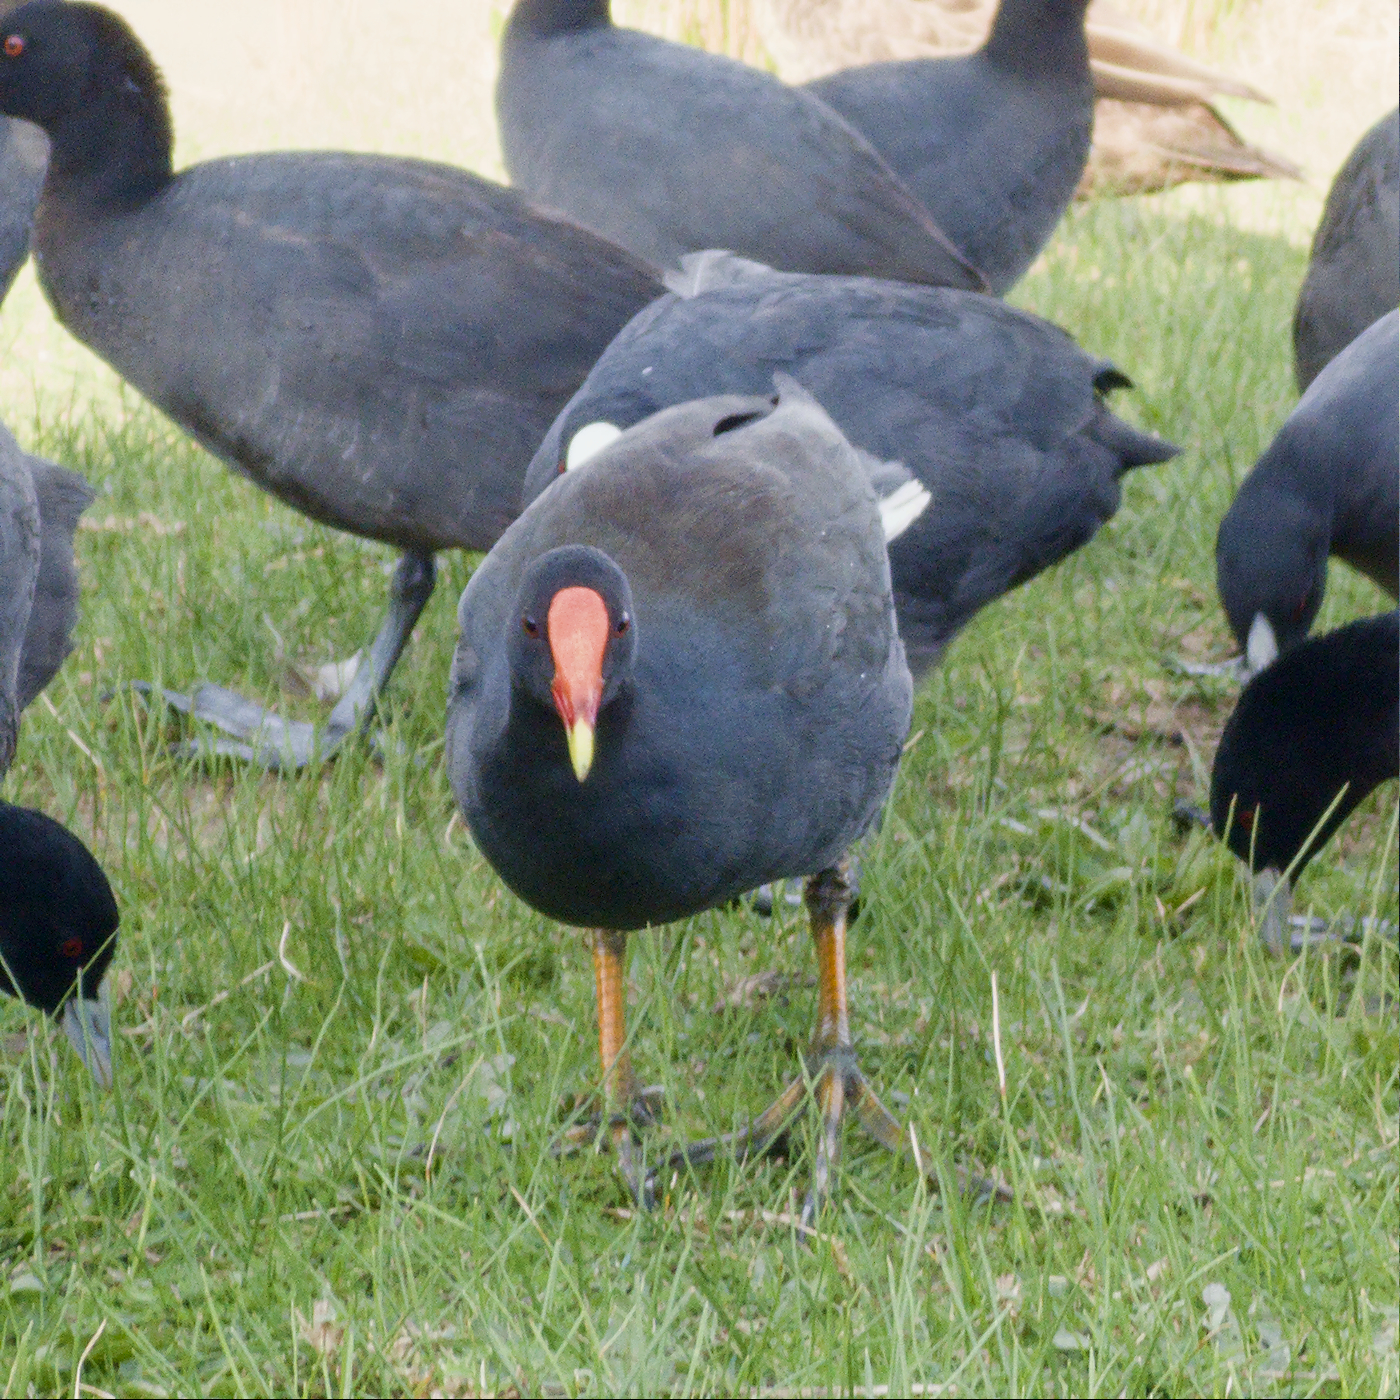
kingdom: Animalia
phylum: Chordata
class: Aves
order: Gruiformes
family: Rallidae
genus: Gallinula
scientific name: Gallinula tenebrosa
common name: Dusky moorhen
